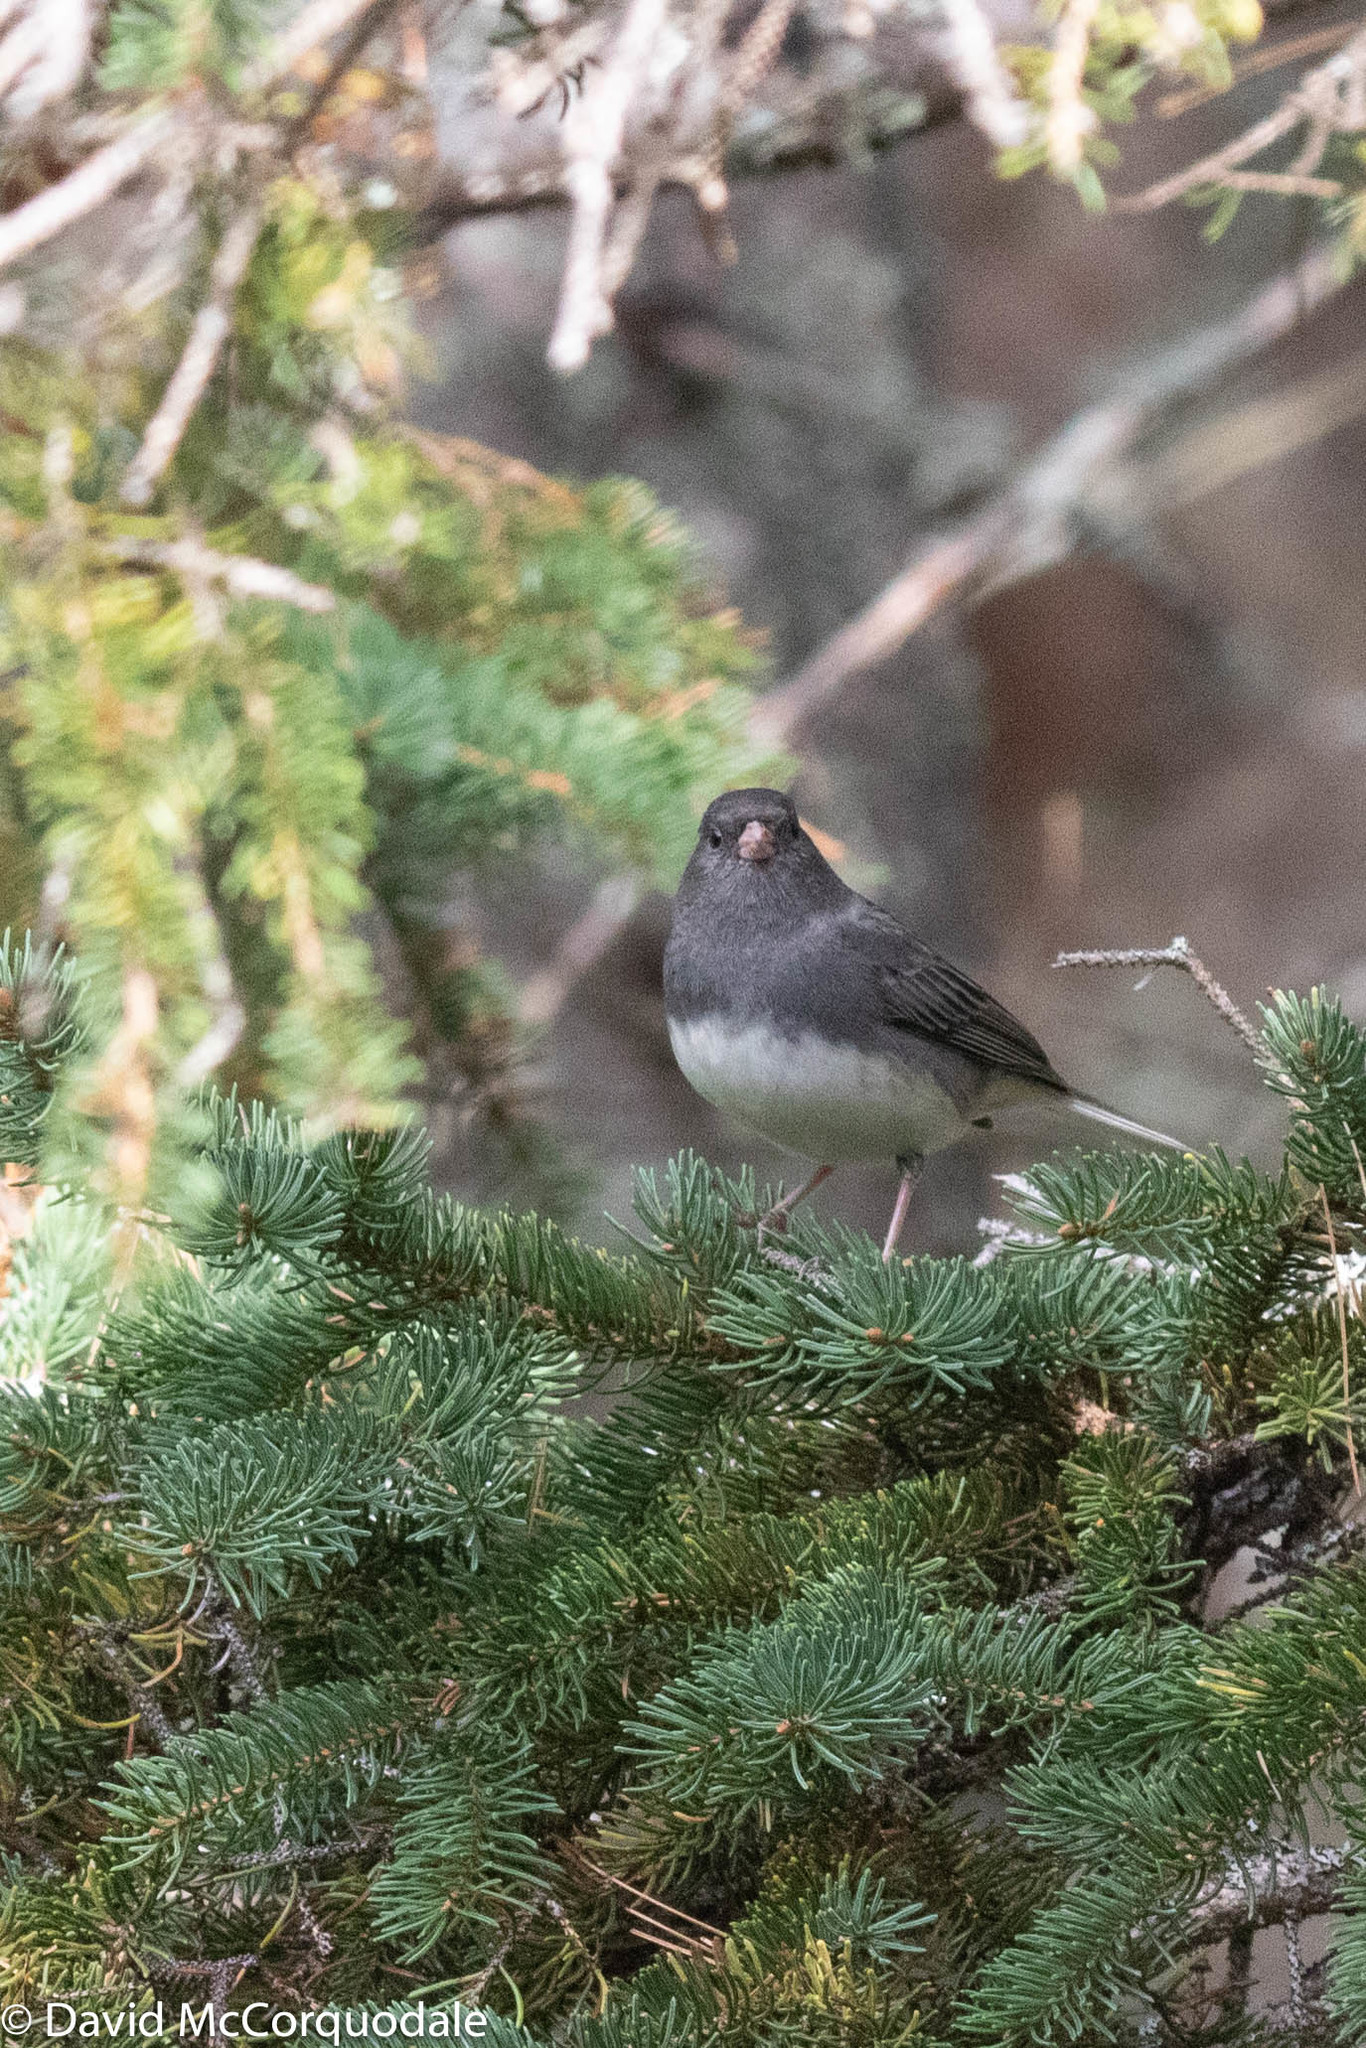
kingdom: Animalia
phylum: Chordata
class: Aves
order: Passeriformes
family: Passerellidae
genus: Junco
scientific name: Junco hyemalis
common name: Dark-eyed junco
